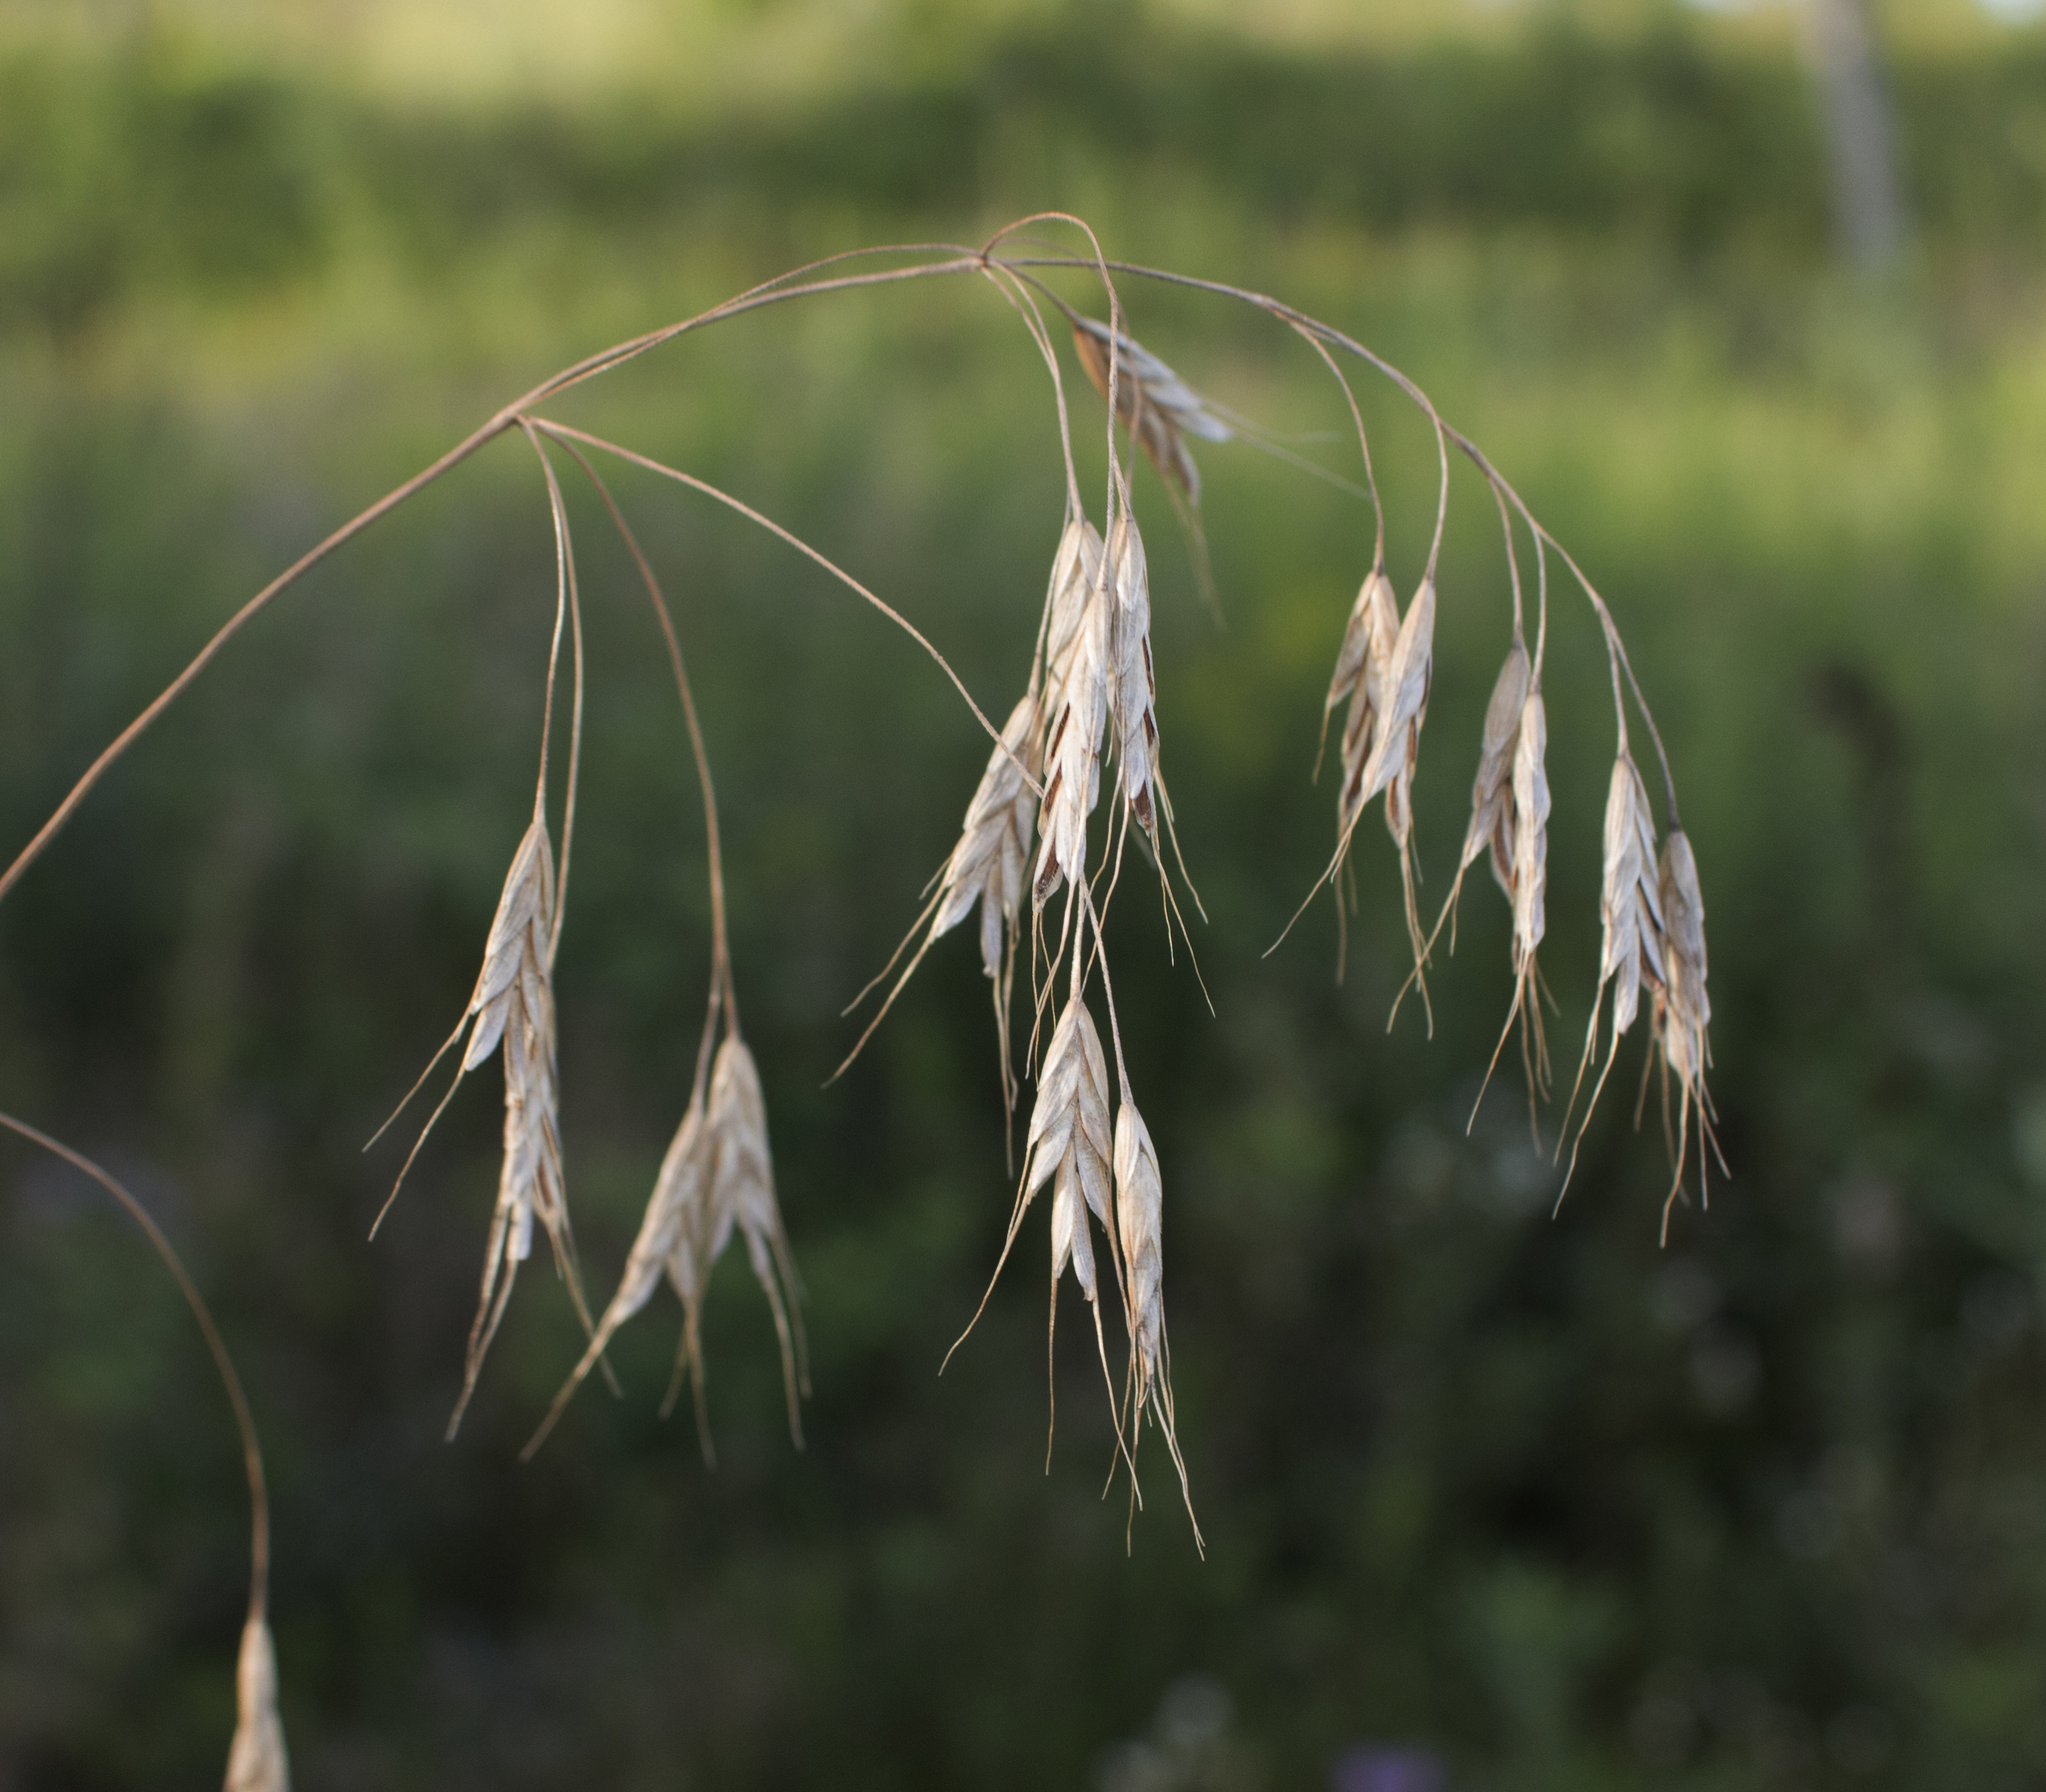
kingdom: Plantae
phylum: Tracheophyta
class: Liliopsida
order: Poales
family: Poaceae
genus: Bromus
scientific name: Bromus secalinus
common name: Rye brome
